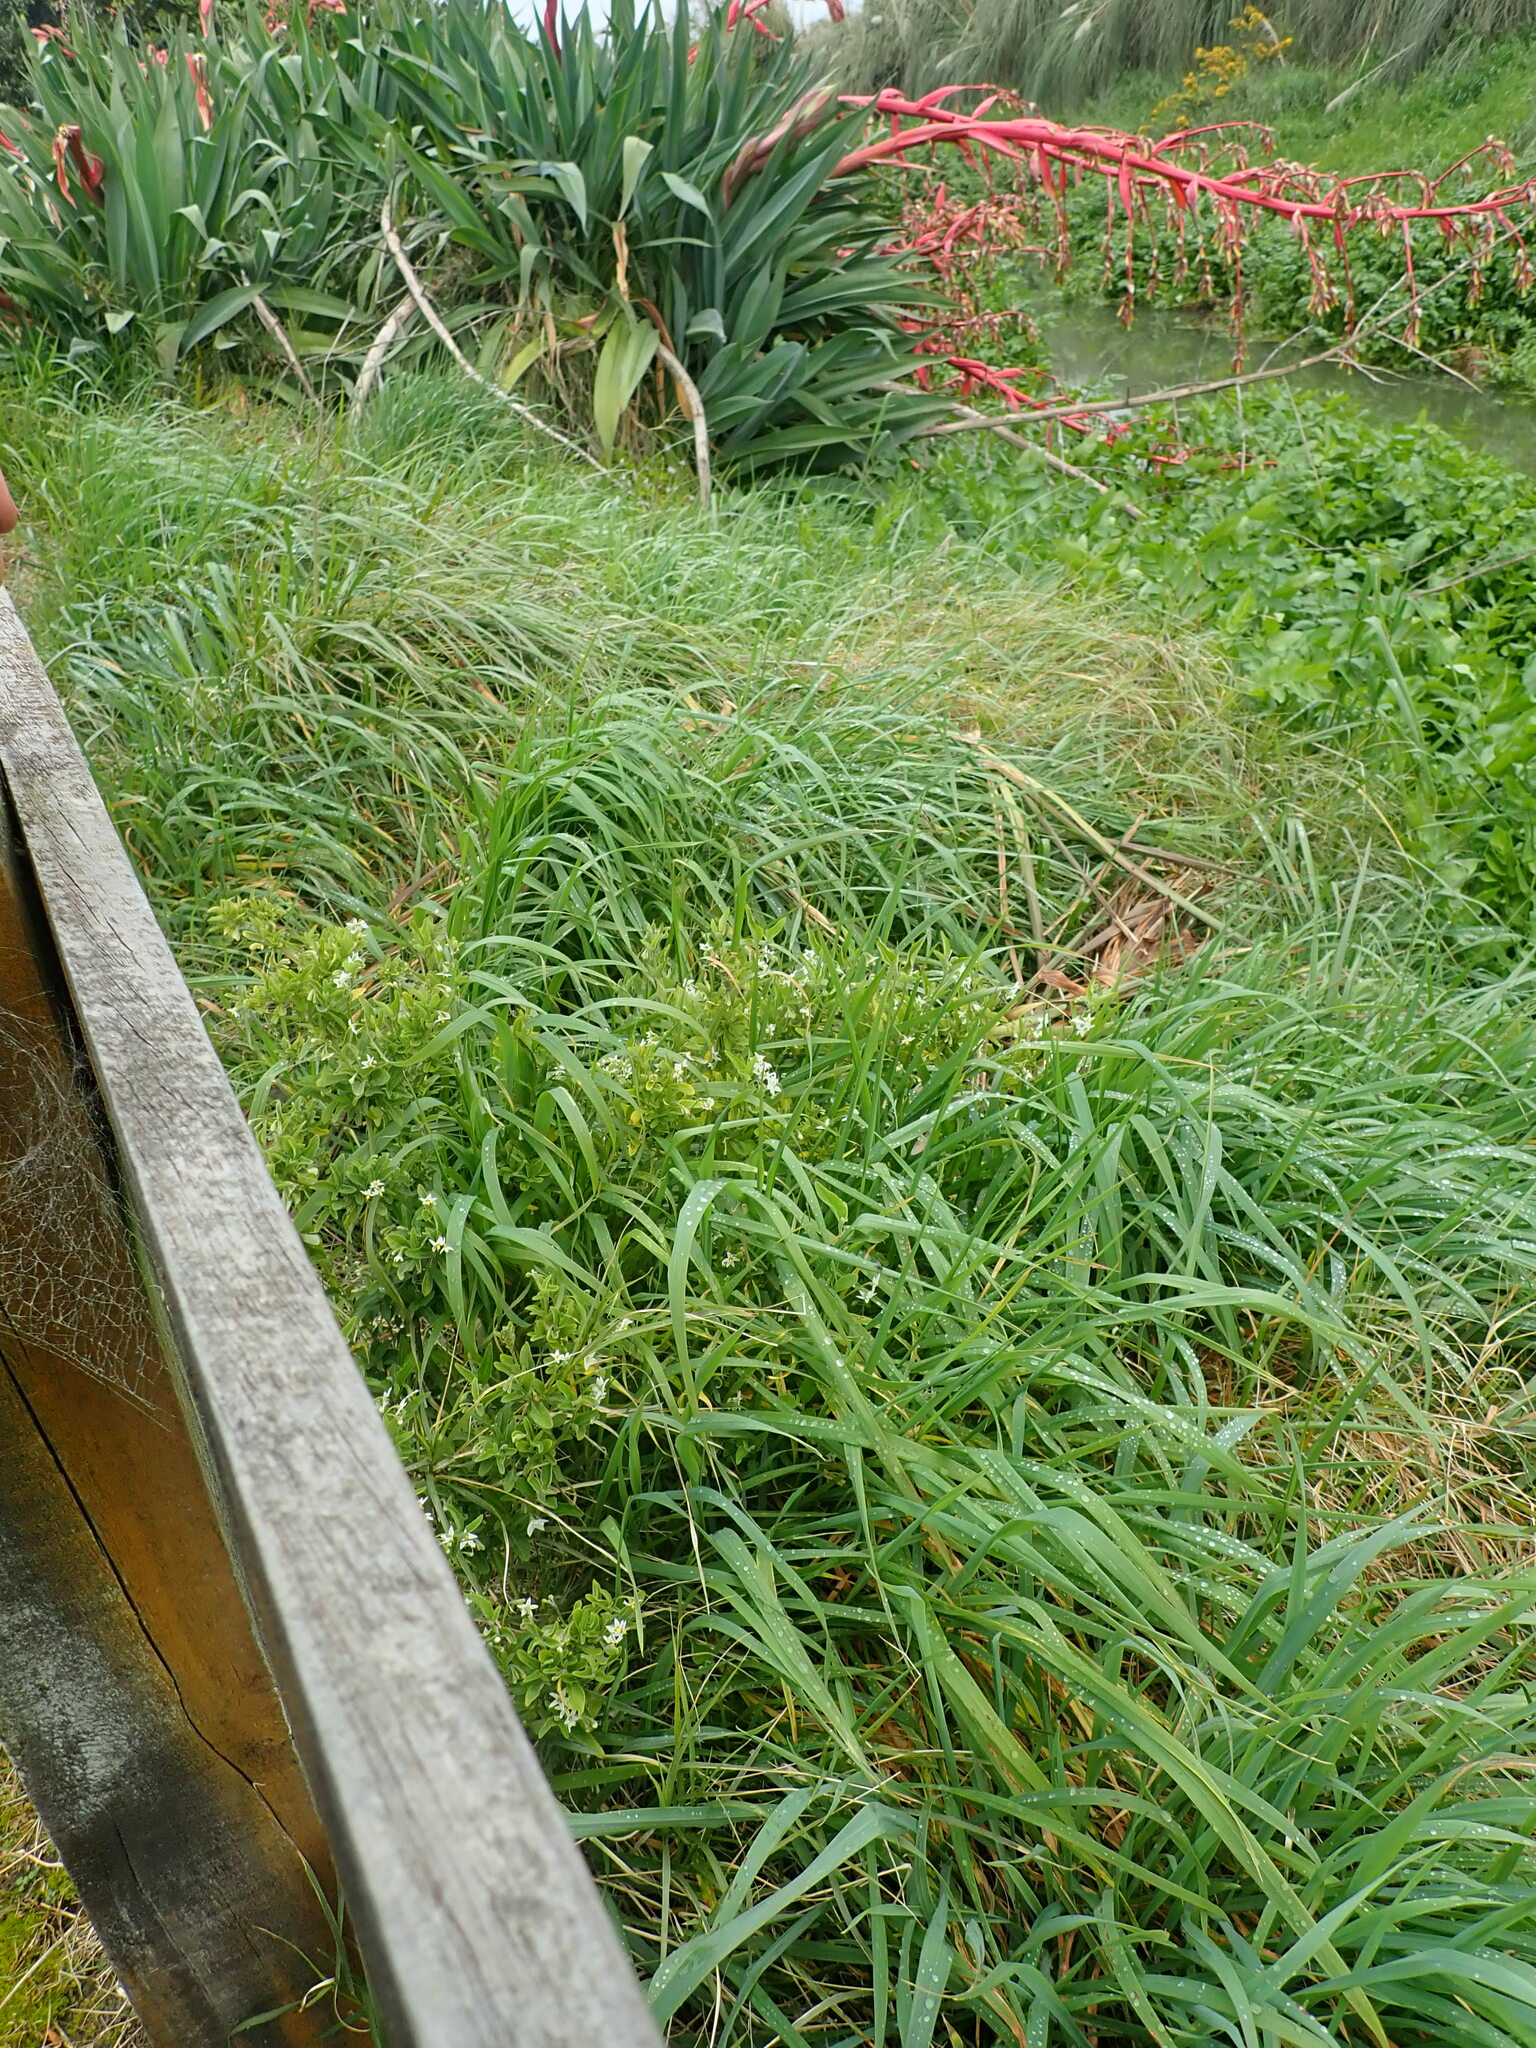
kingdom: Plantae
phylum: Tracheophyta
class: Magnoliopsida
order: Apiales
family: Apiaceae
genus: Helosciadium
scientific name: Helosciadium nodiflorum
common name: Fool's-watercress
